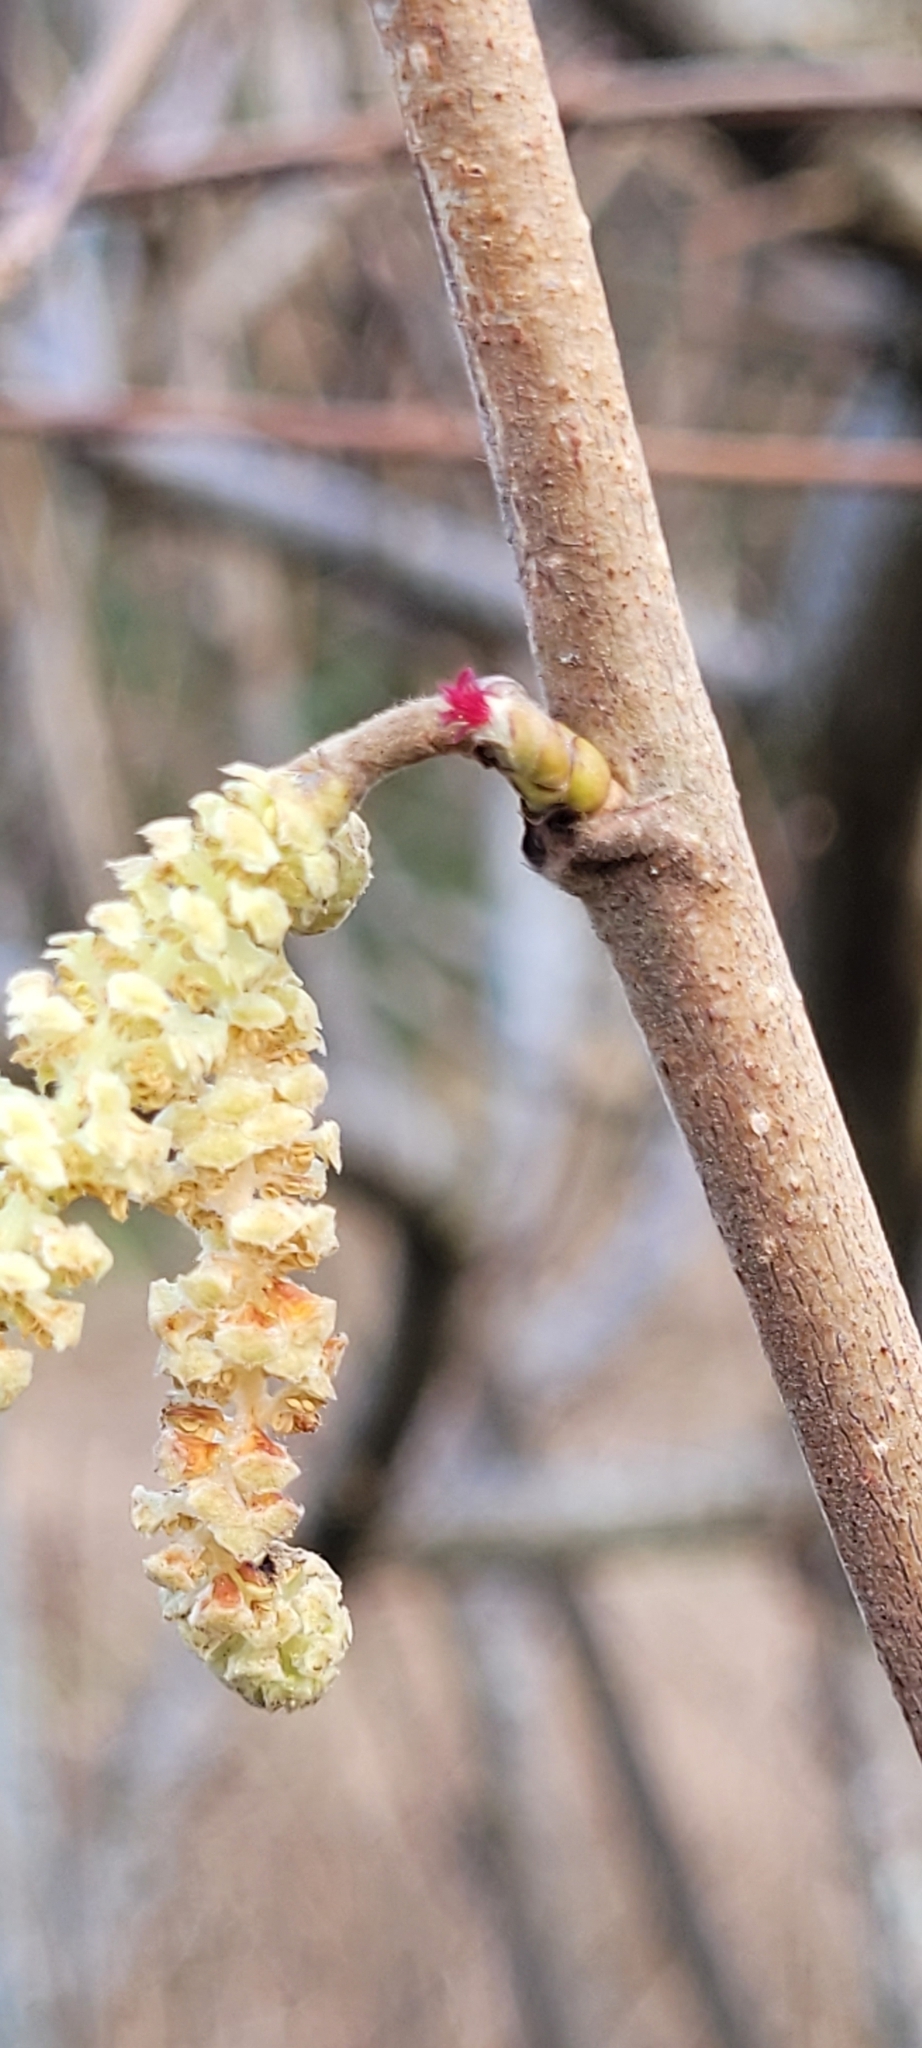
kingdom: Plantae
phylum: Tracheophyta
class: Magnoliopsida
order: Fagales
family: Betulaceae
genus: Corylus
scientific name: Corylus avellana
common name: European hazel
